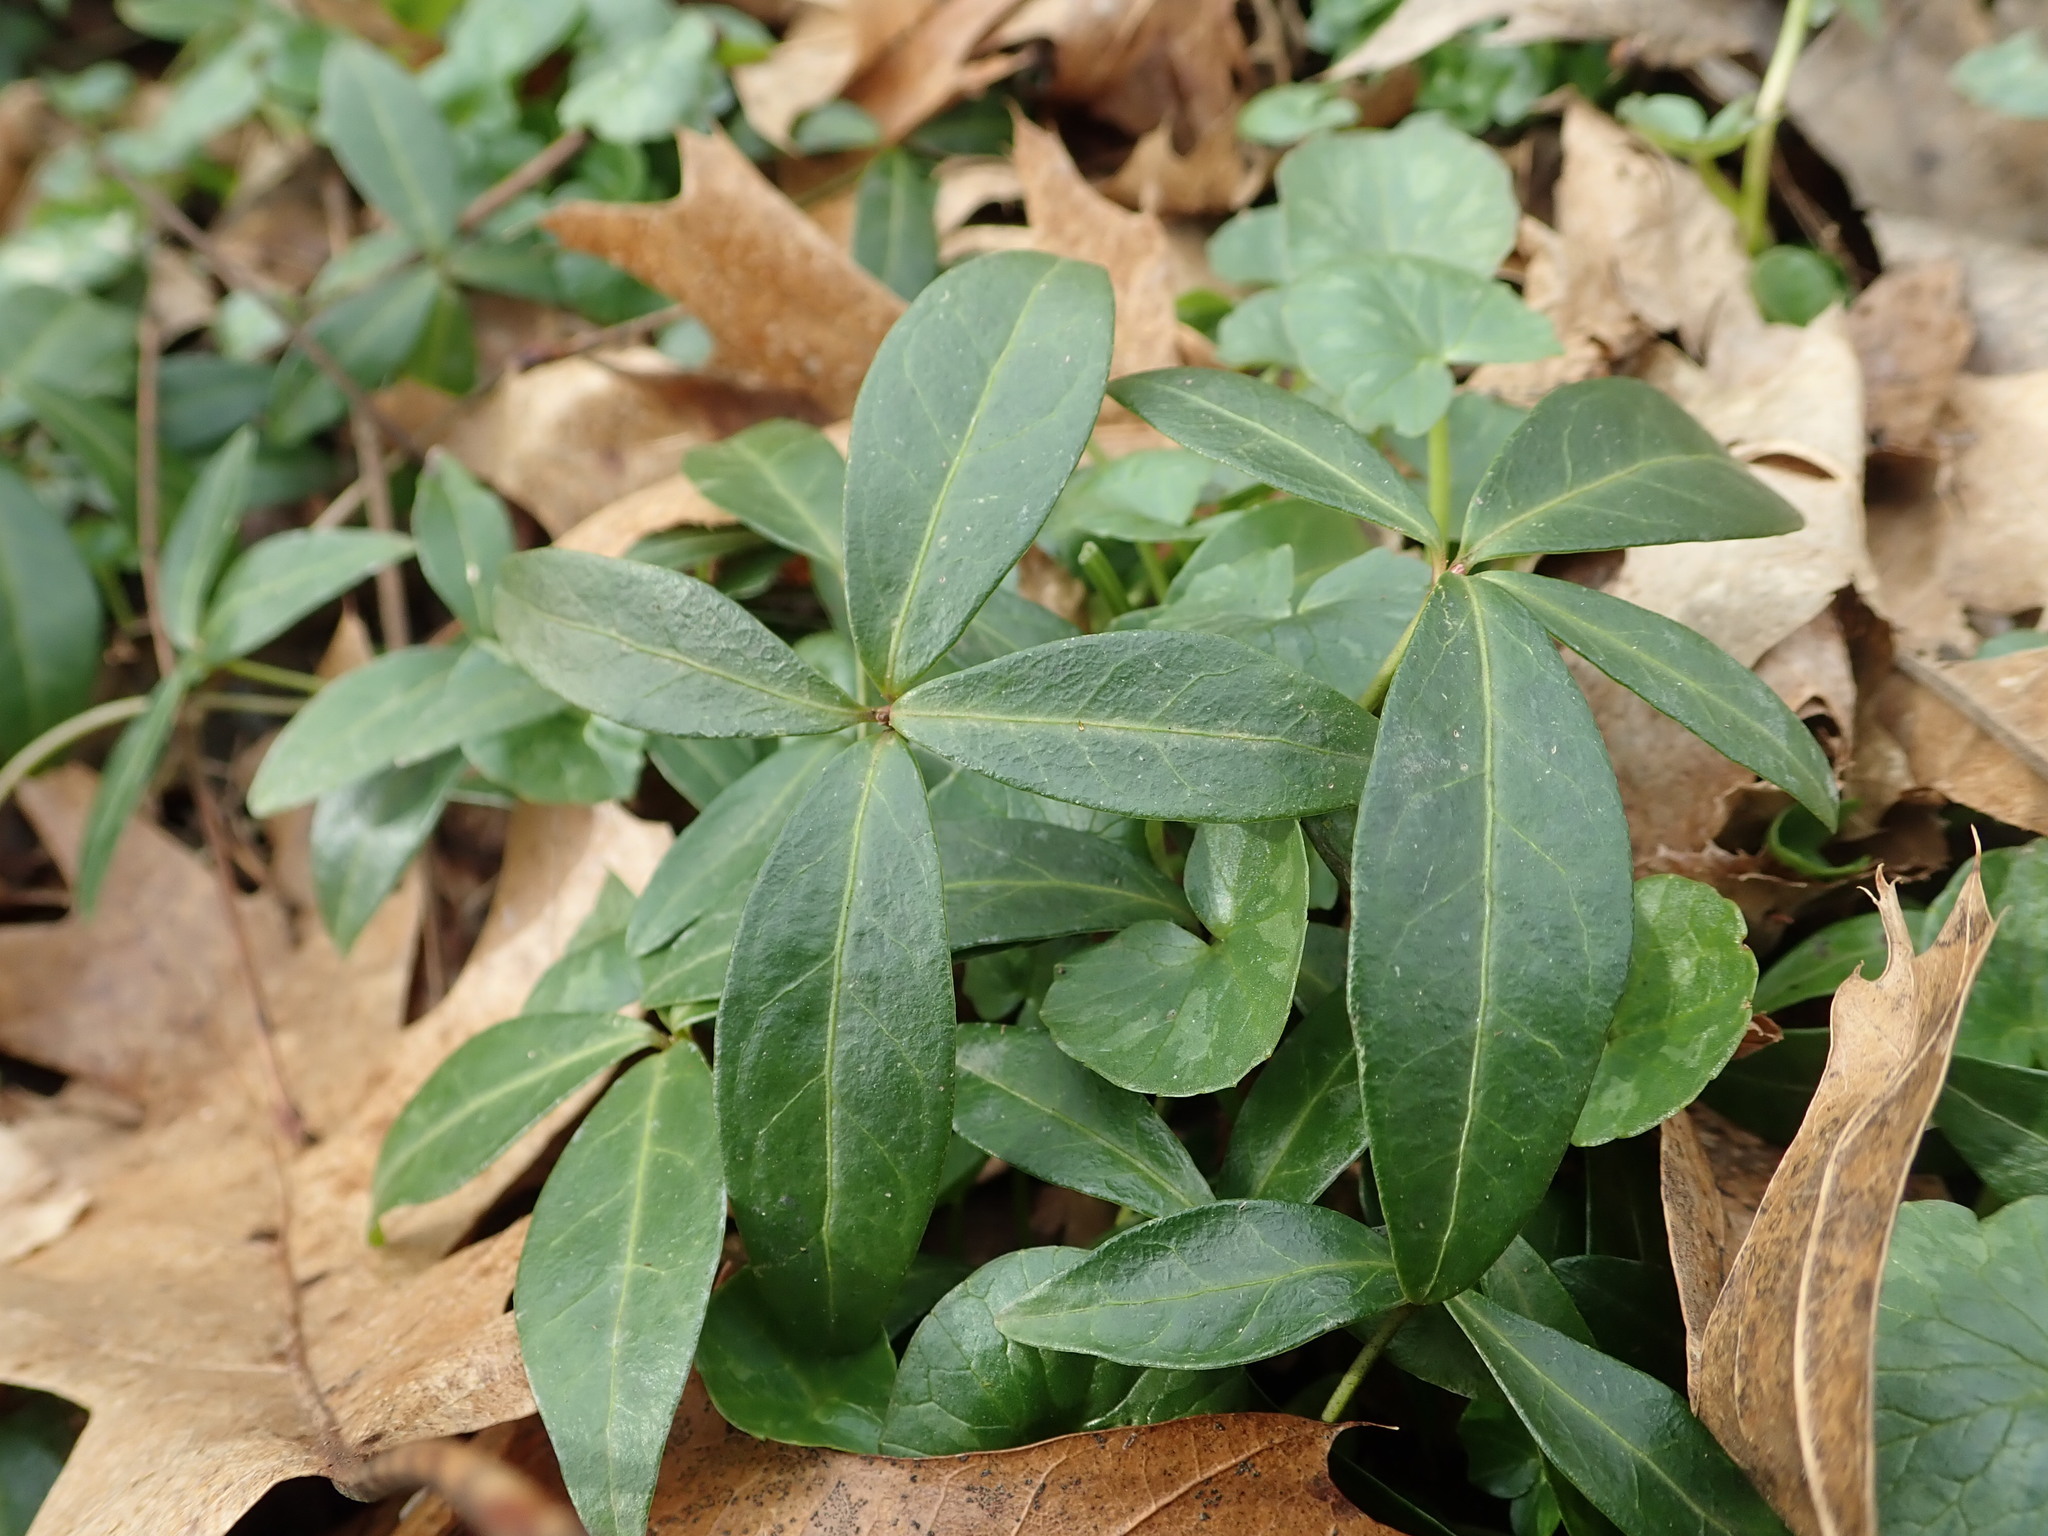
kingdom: Plantae
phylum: Tracheophyta
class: Magnoliopsida
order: Gentianales
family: Apocynaceae
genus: Vinca
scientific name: Vinca minor
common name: Lesser periwinkle
